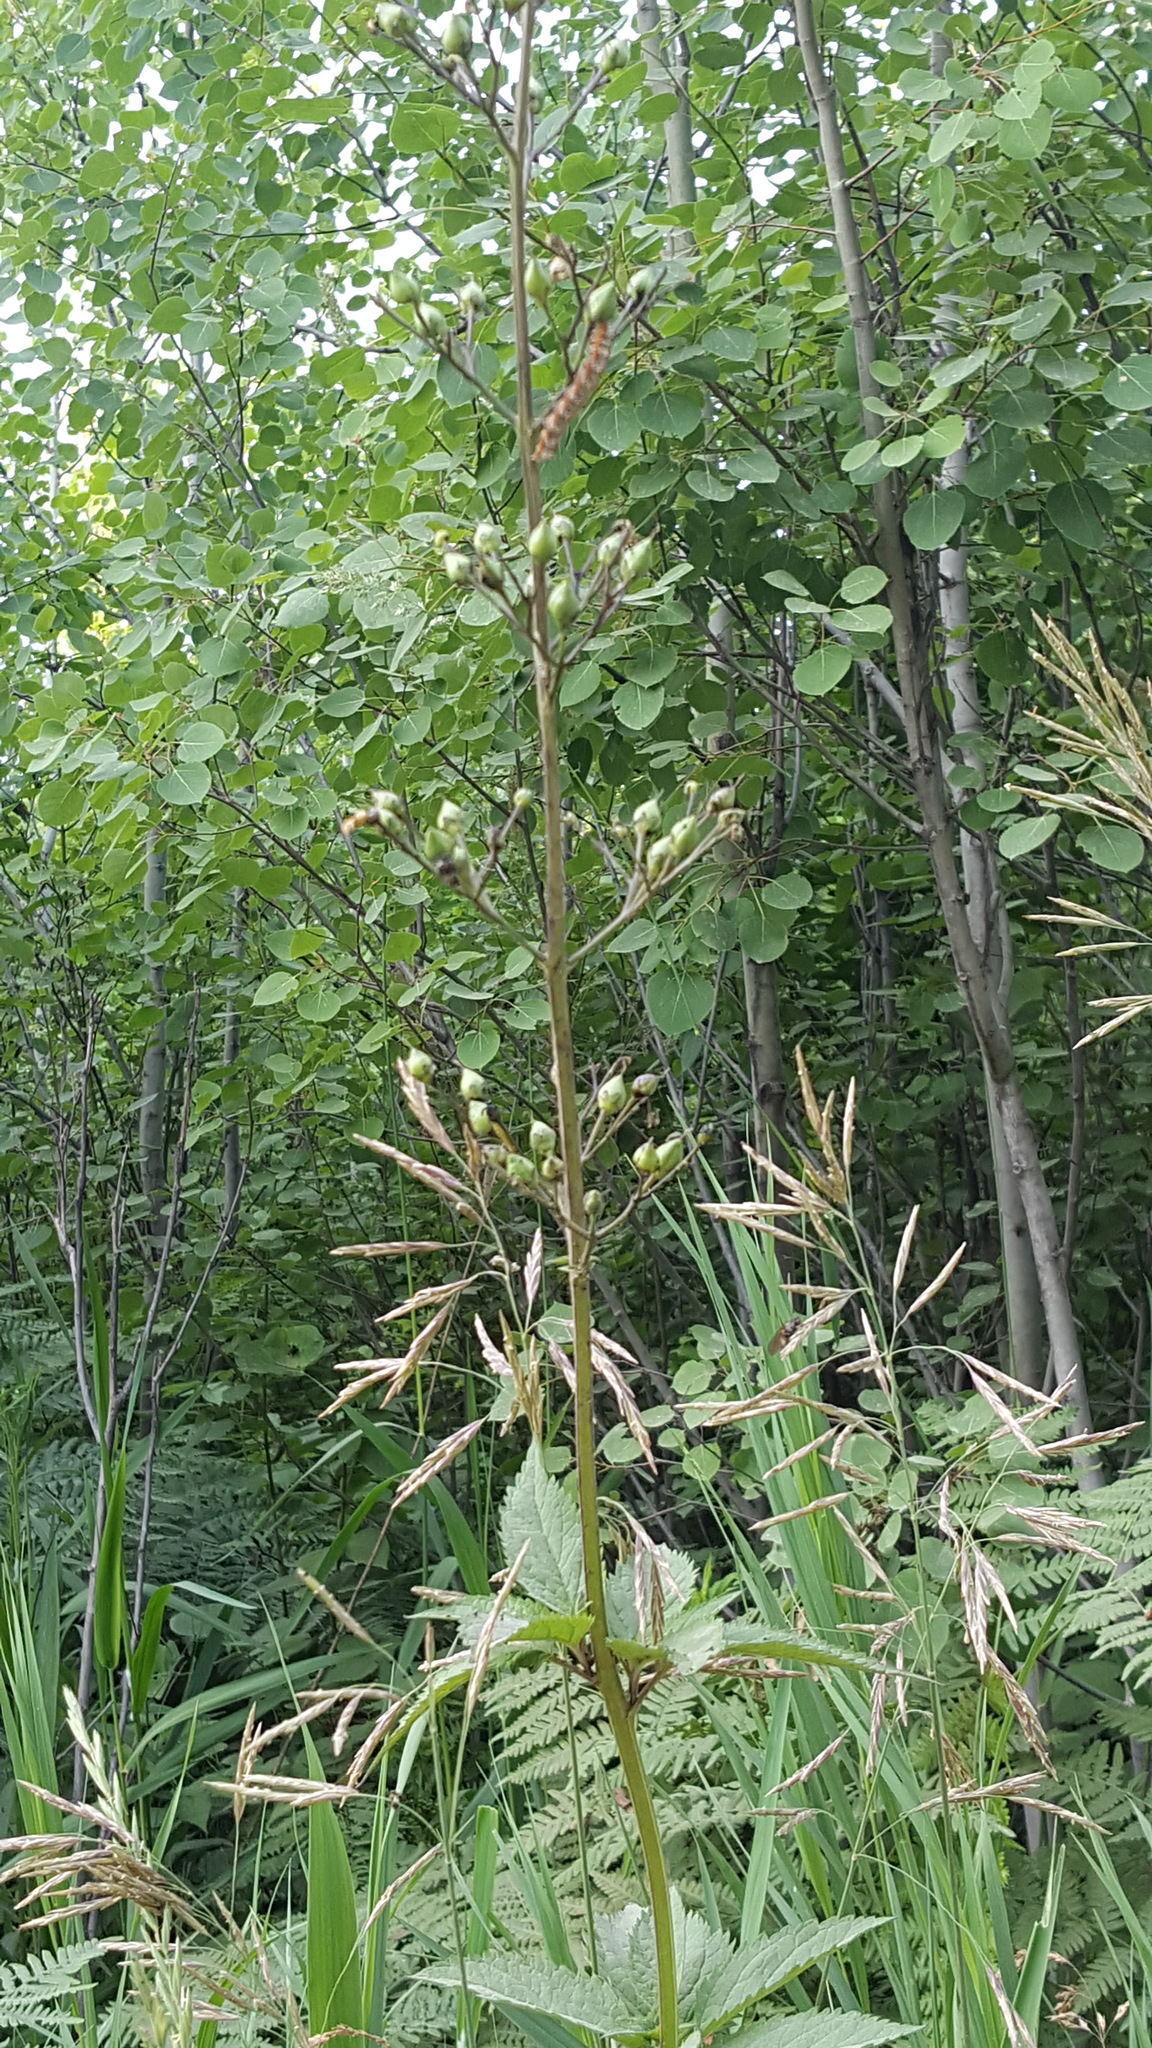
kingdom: Plantae
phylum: Tracheophyta
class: Magnoliopsida
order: Lamiales
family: Scrophulariaceae
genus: Scrophularia
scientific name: Scrophularia lanceolata
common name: American figwort
